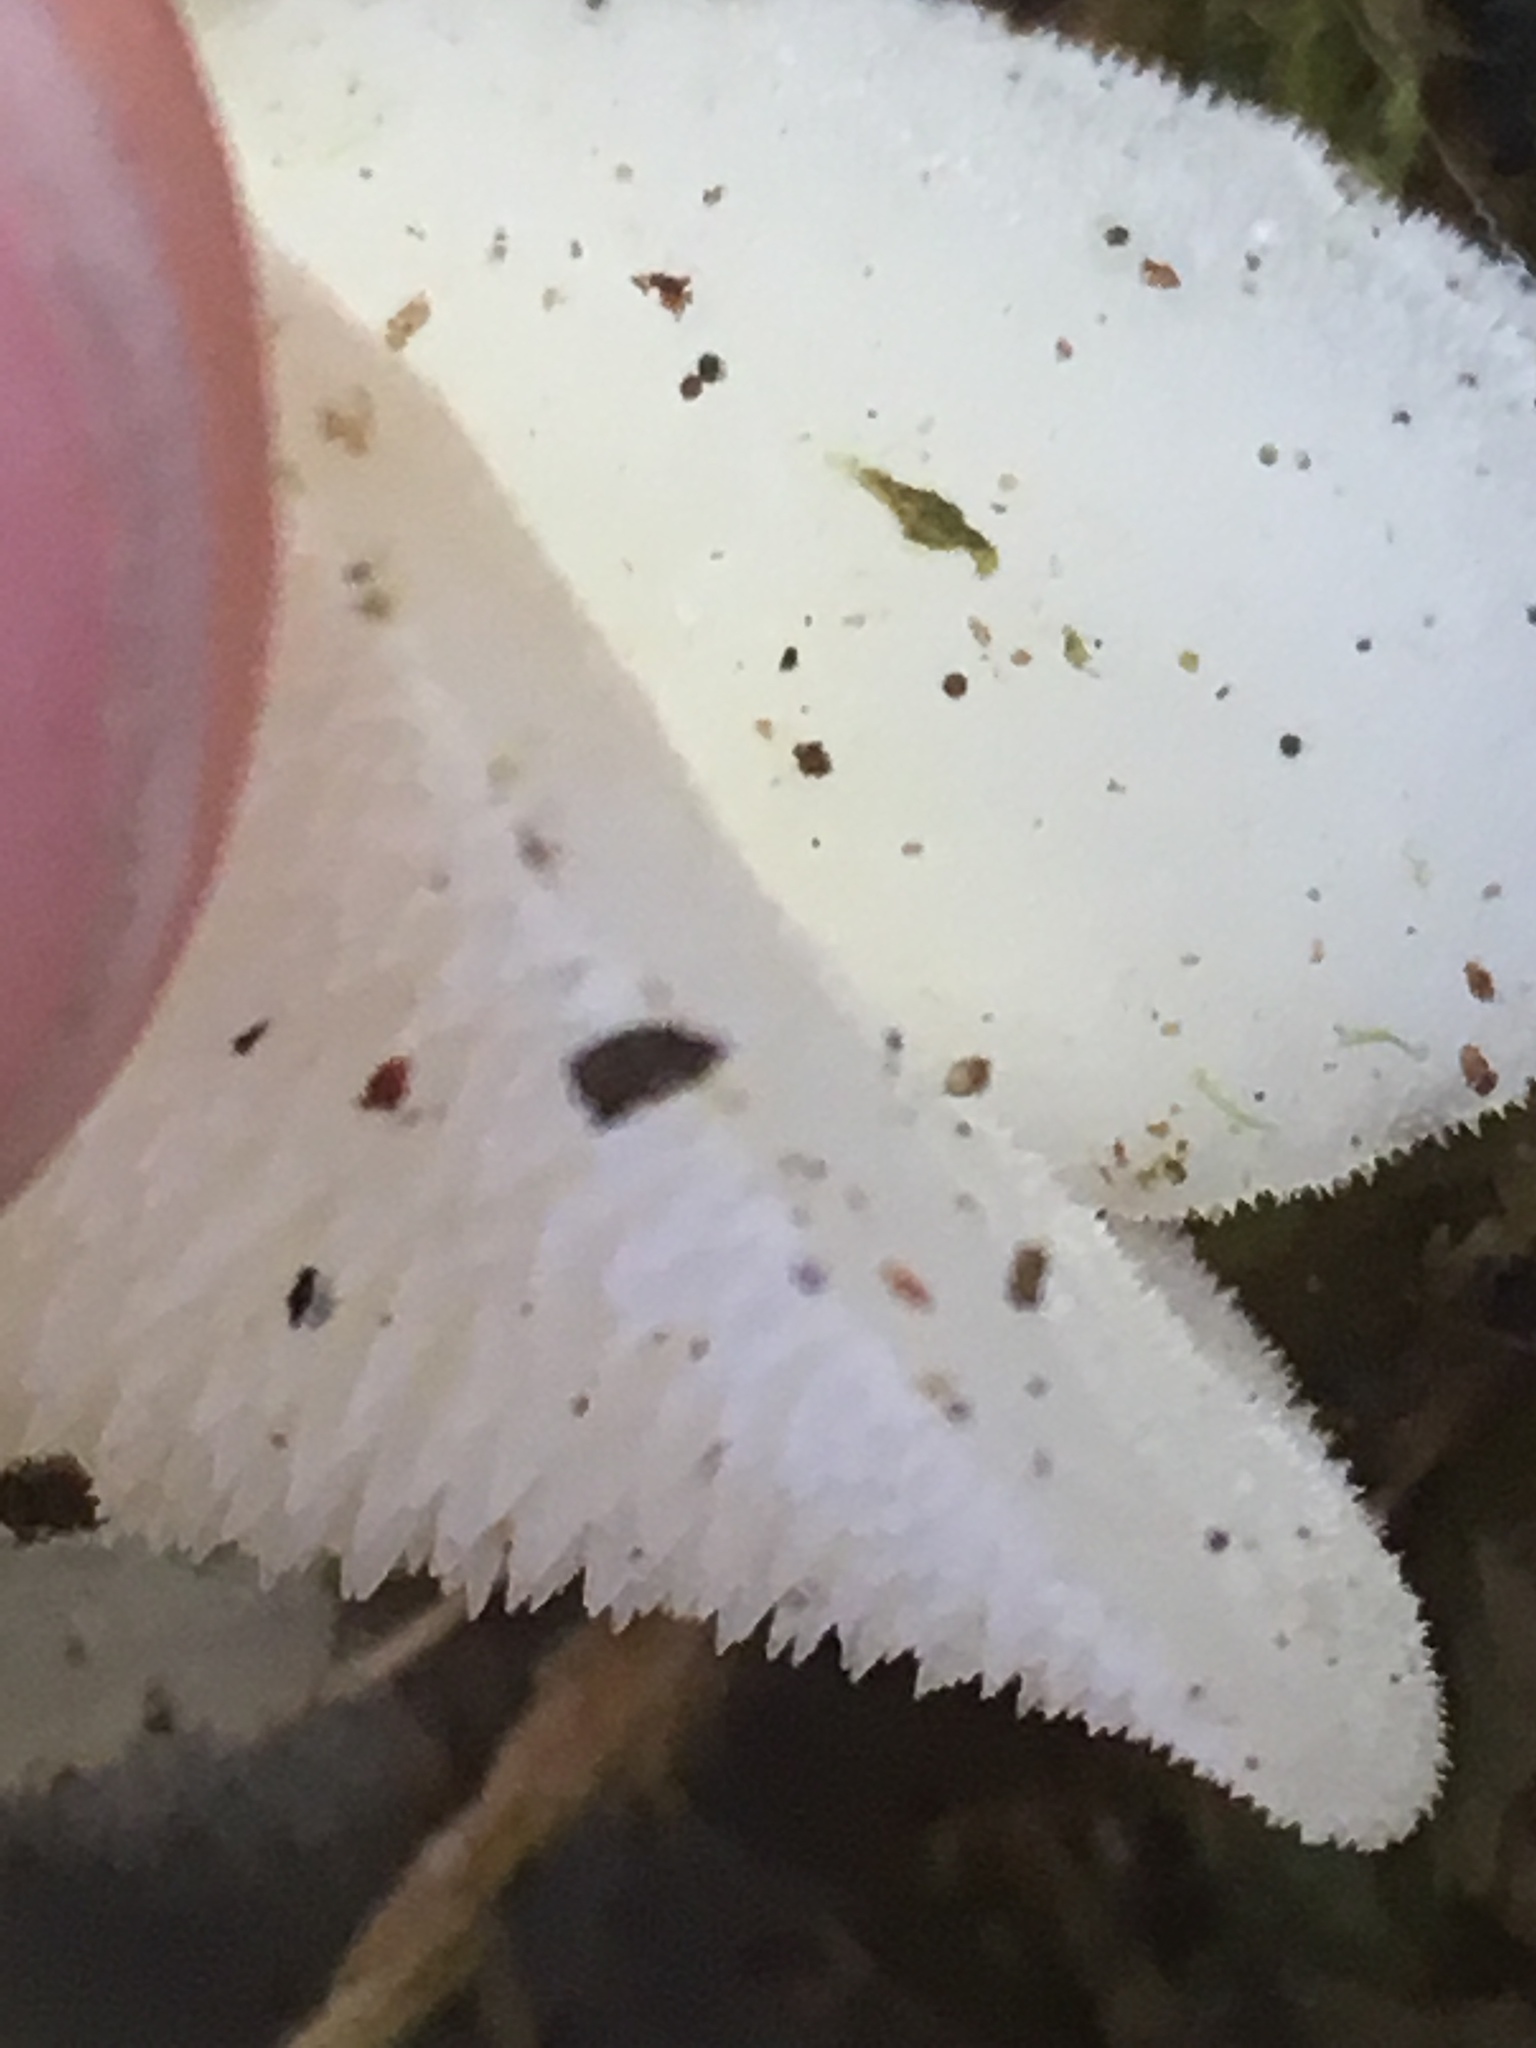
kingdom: Fungi
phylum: Basidiomycota
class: Agaricomycetes
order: Auriculariales
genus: Pseudohydnum
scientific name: Pseudohydnum gelatinosum
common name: Jelly tongue
